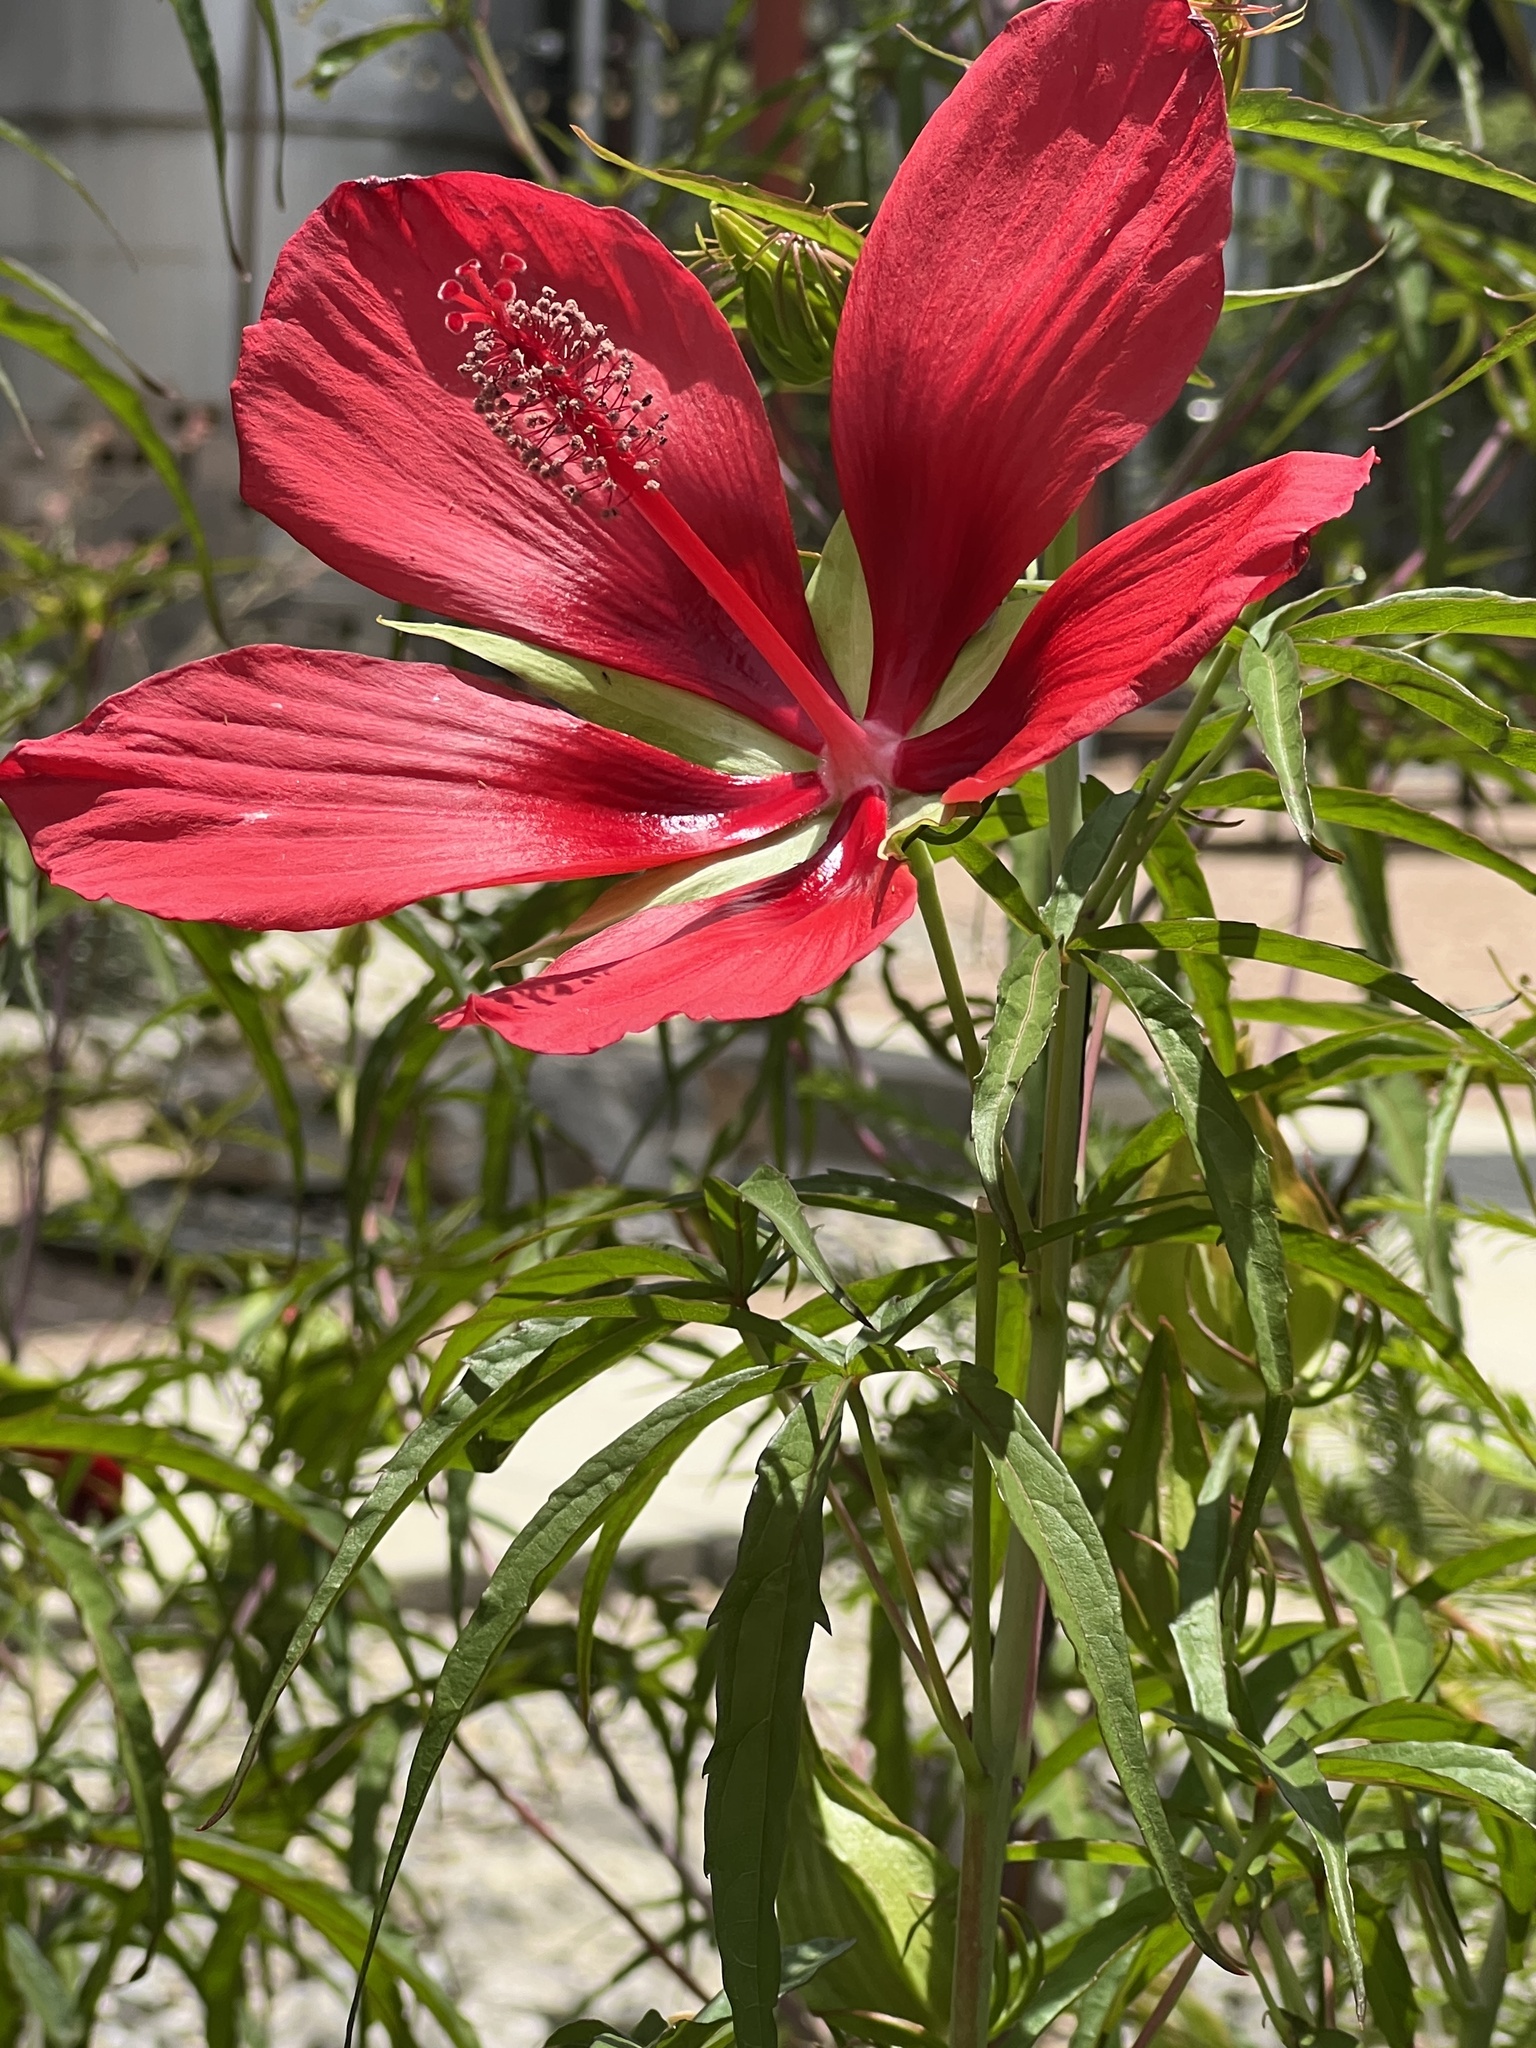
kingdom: Plantae
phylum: Tracheophyta
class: Magnoliopsida
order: Malvales
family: Malvaceae
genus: Hibiscus
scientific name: Hibiscus coccineus
